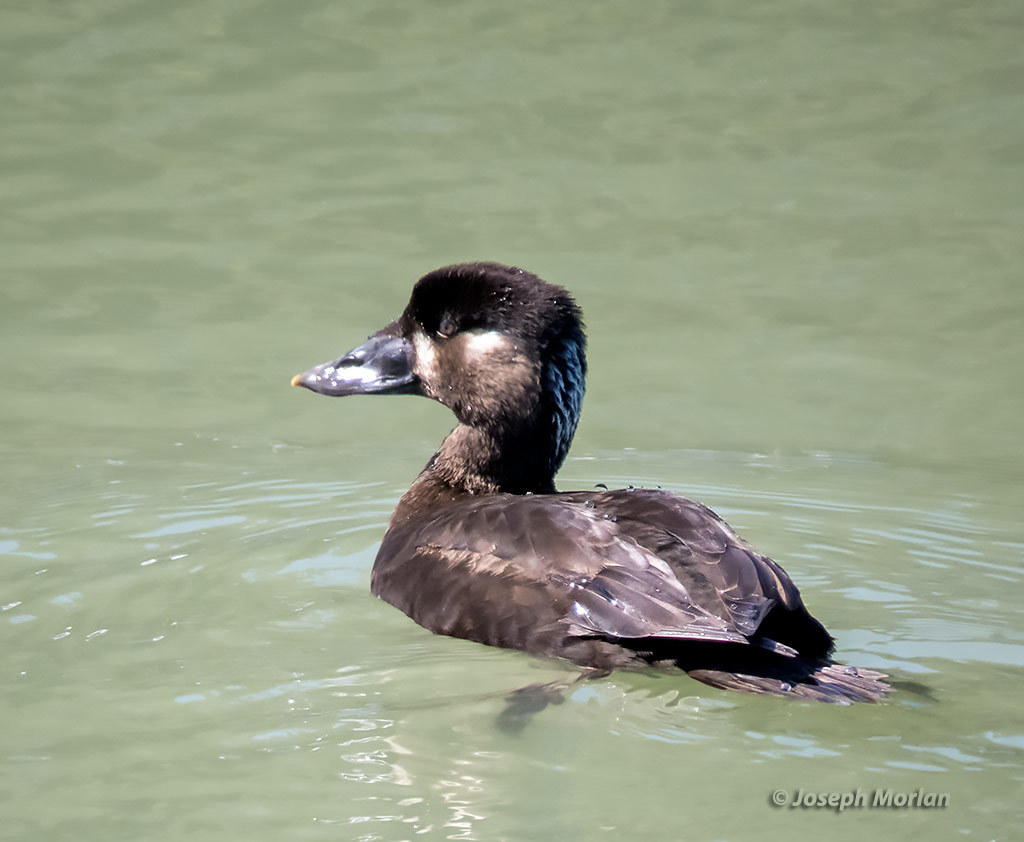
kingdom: Animalia
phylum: Chordata
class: Aves
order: Anseriformes
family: Anatidae
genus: Melanitta
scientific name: Melanitta perspicillata
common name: Surf scoter
